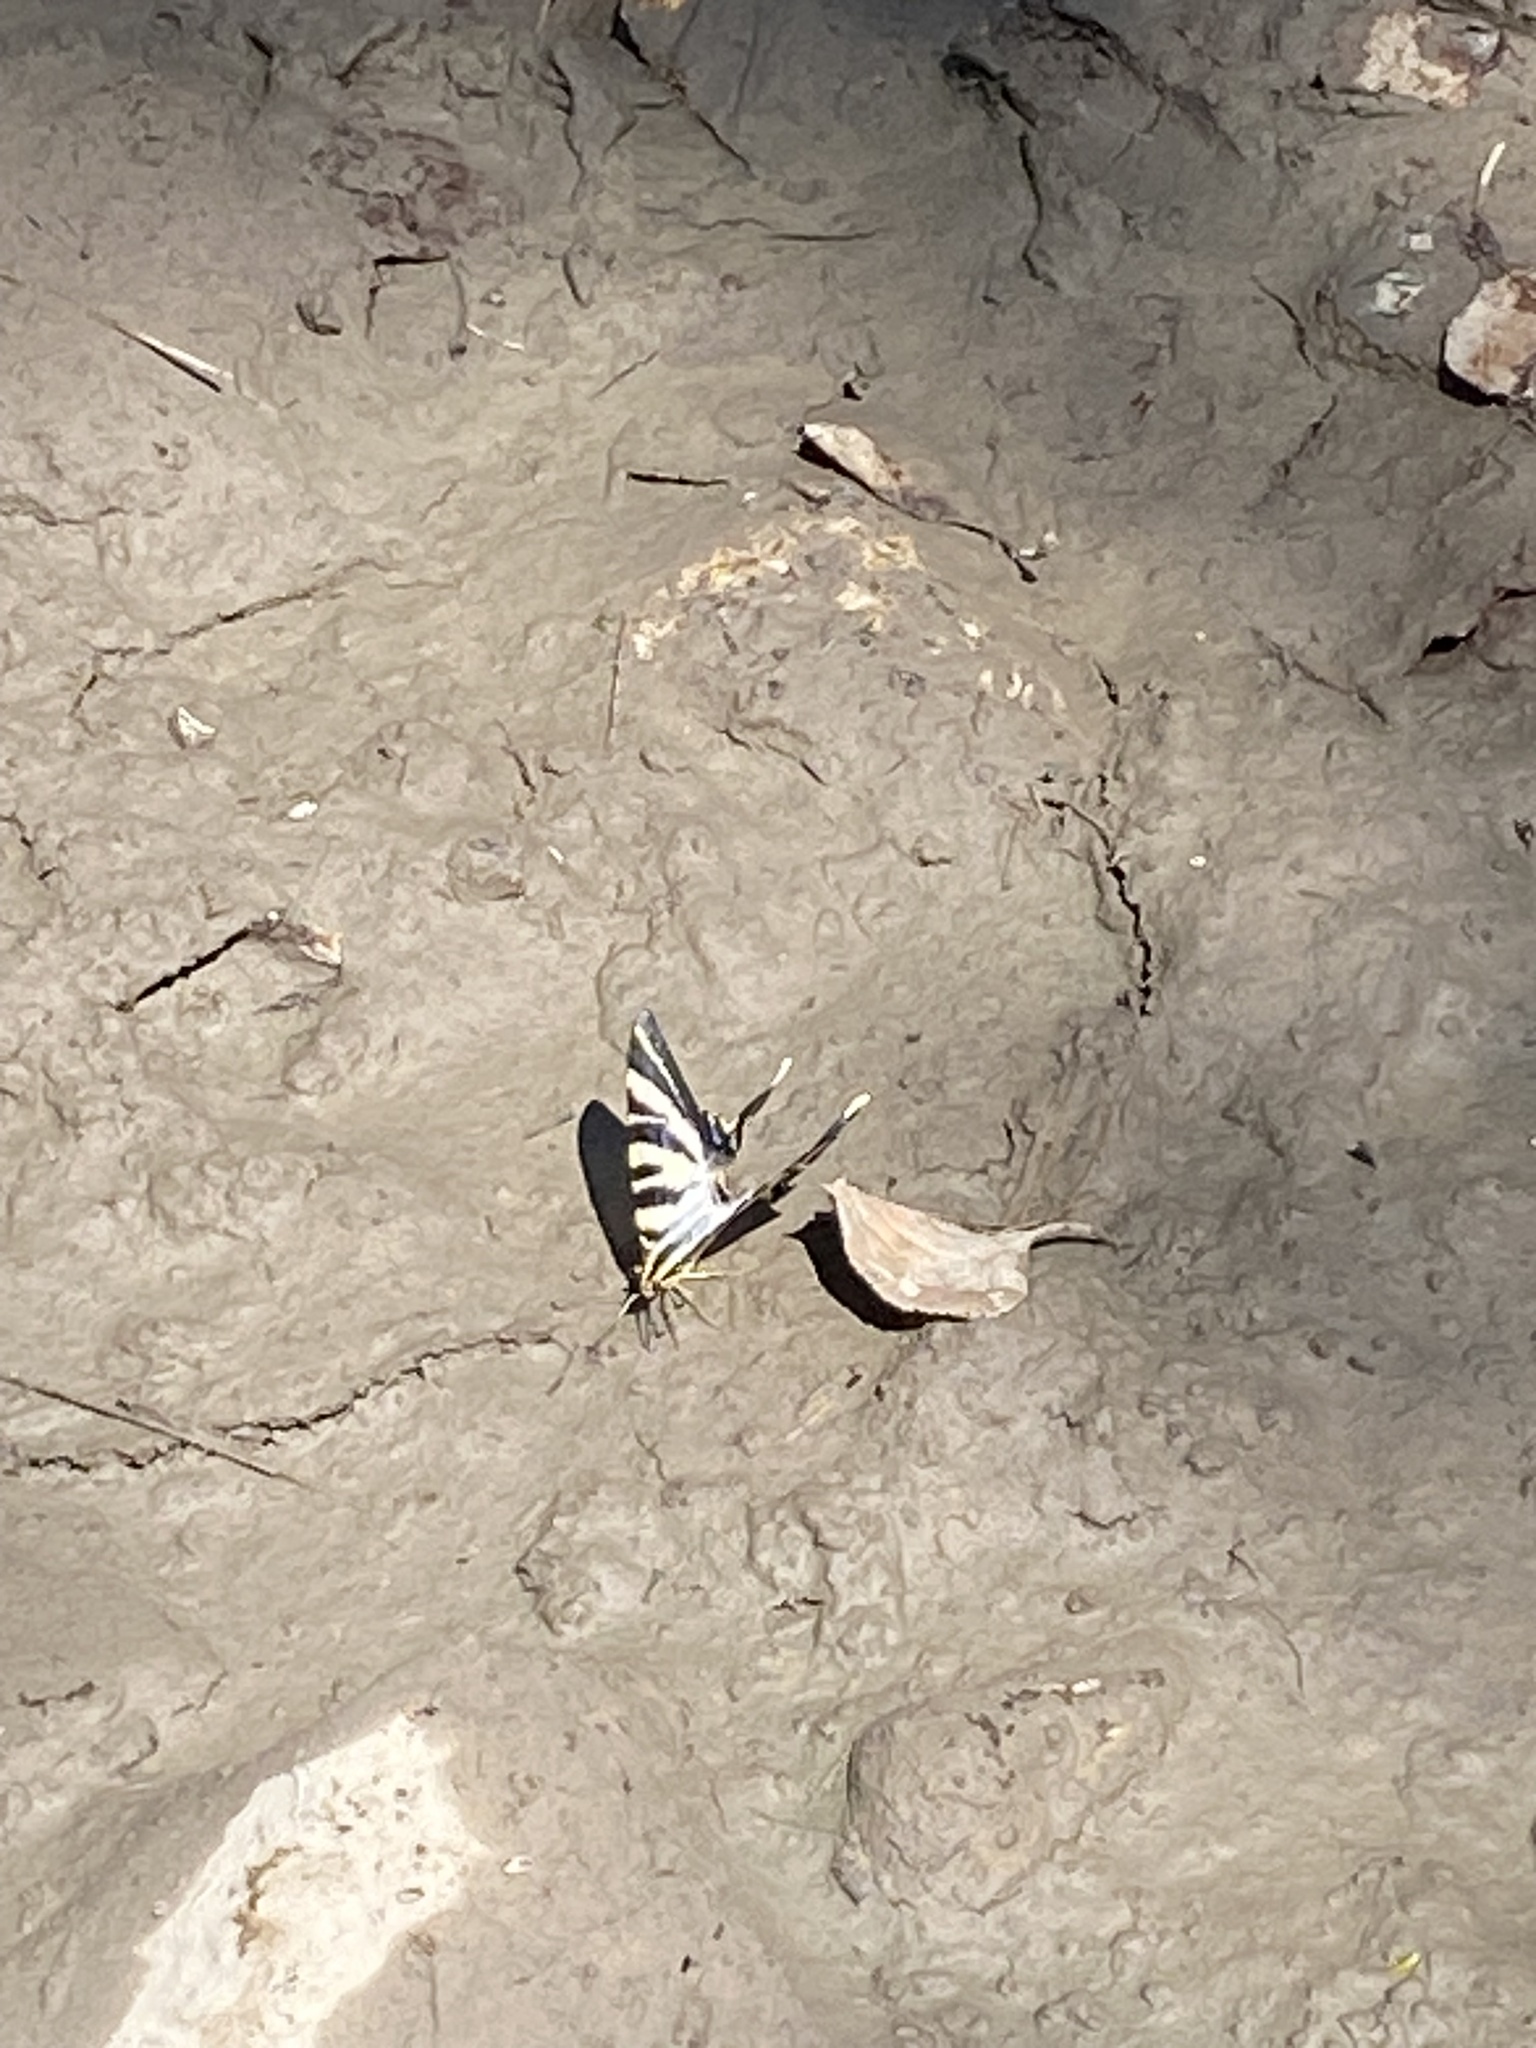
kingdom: Animalia
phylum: Arthropoda
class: Insecta
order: Lepidoptera
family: Papilionidae
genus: Iphiclides
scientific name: Iphiclides feisthamelii
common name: Iberian scarce swallowtail
